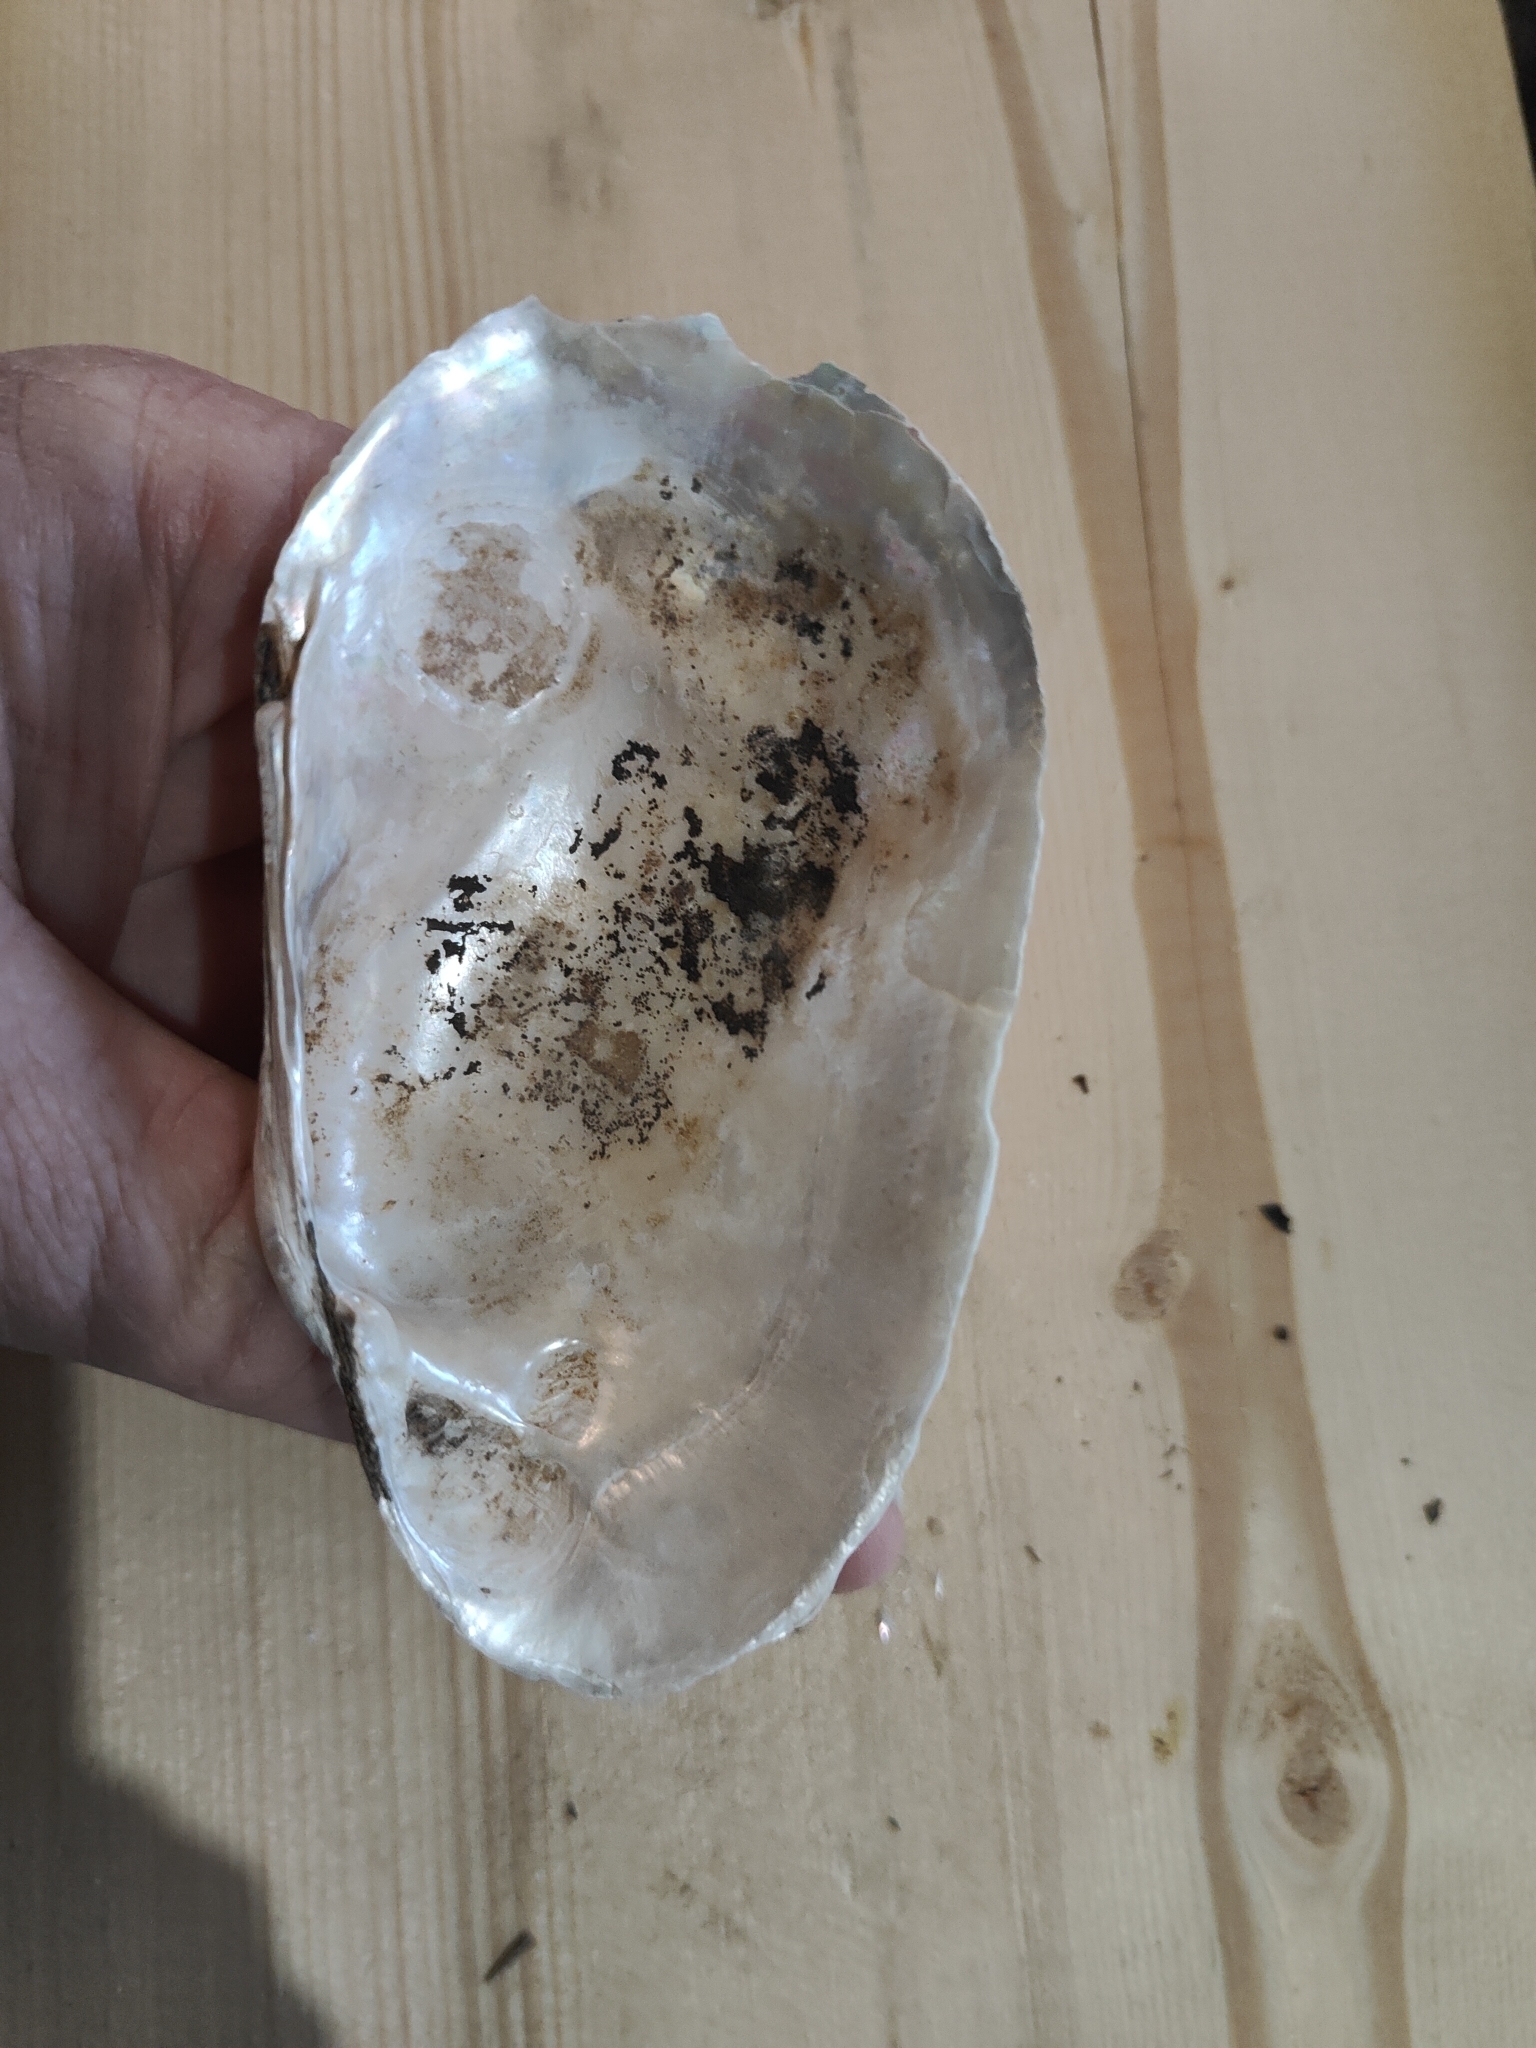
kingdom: Animalia
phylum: Mollusca
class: Bivalvia
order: Unionida
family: Unionidae
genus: Lampsilis
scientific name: Lampsilis siliquoidea
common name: Fatmucket
